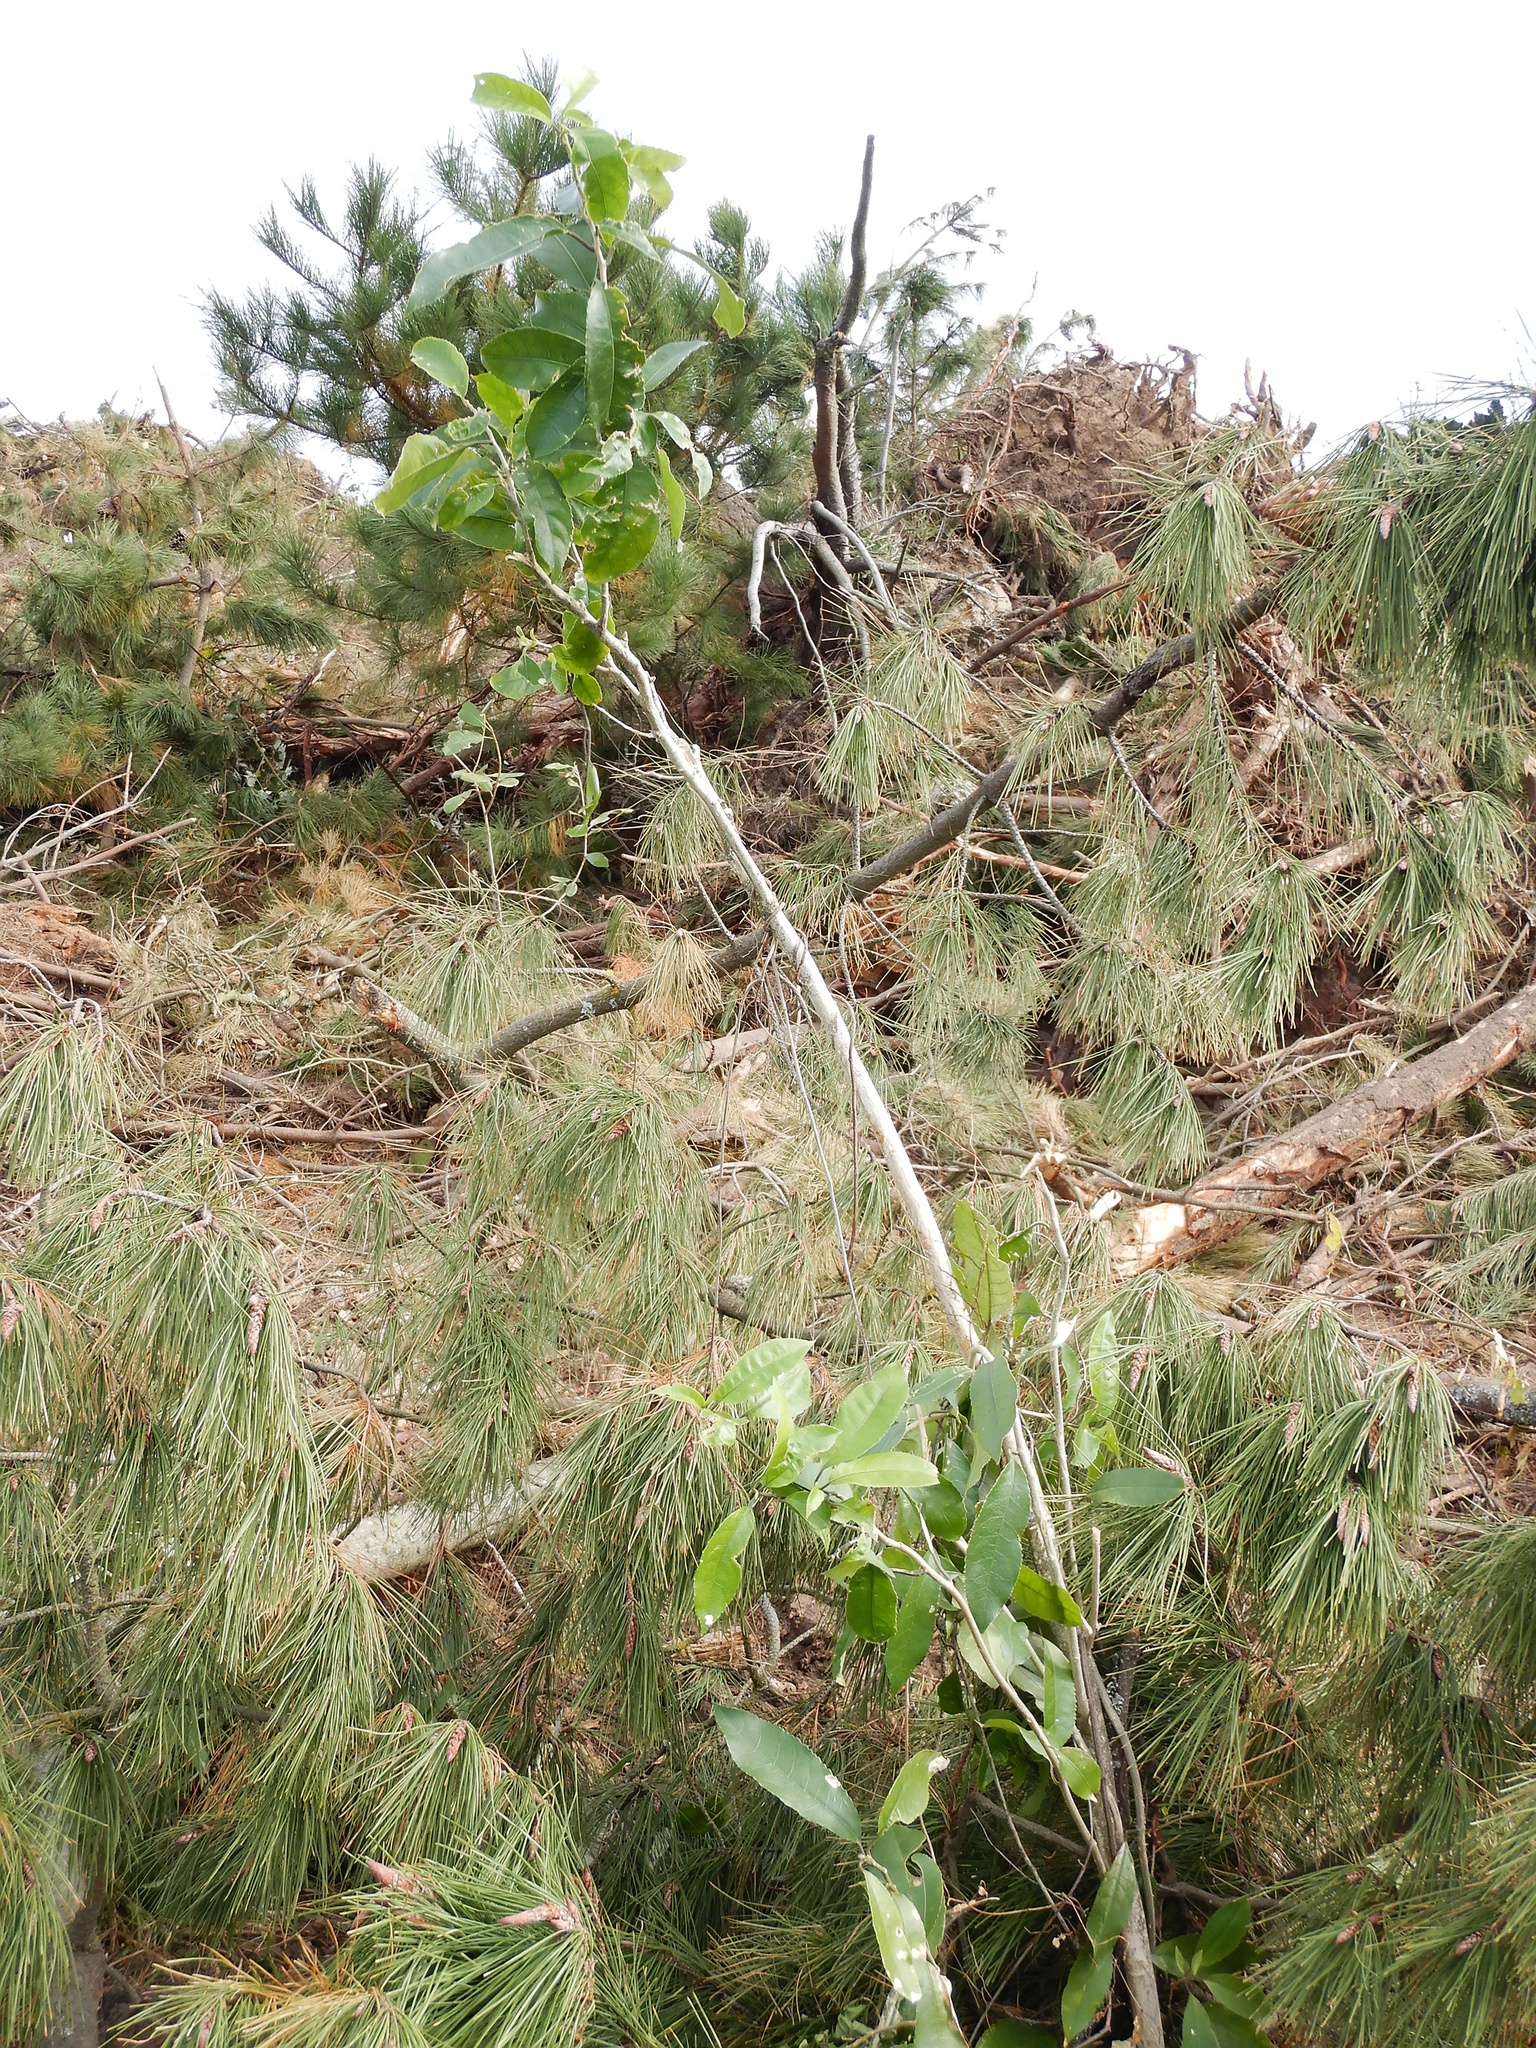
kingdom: Plantae
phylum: Tracheophyta
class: Magnoliopsida
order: Malpighiales
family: Violaceae
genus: Melicytus
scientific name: Melicytus ramiflorus
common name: Mahoe
